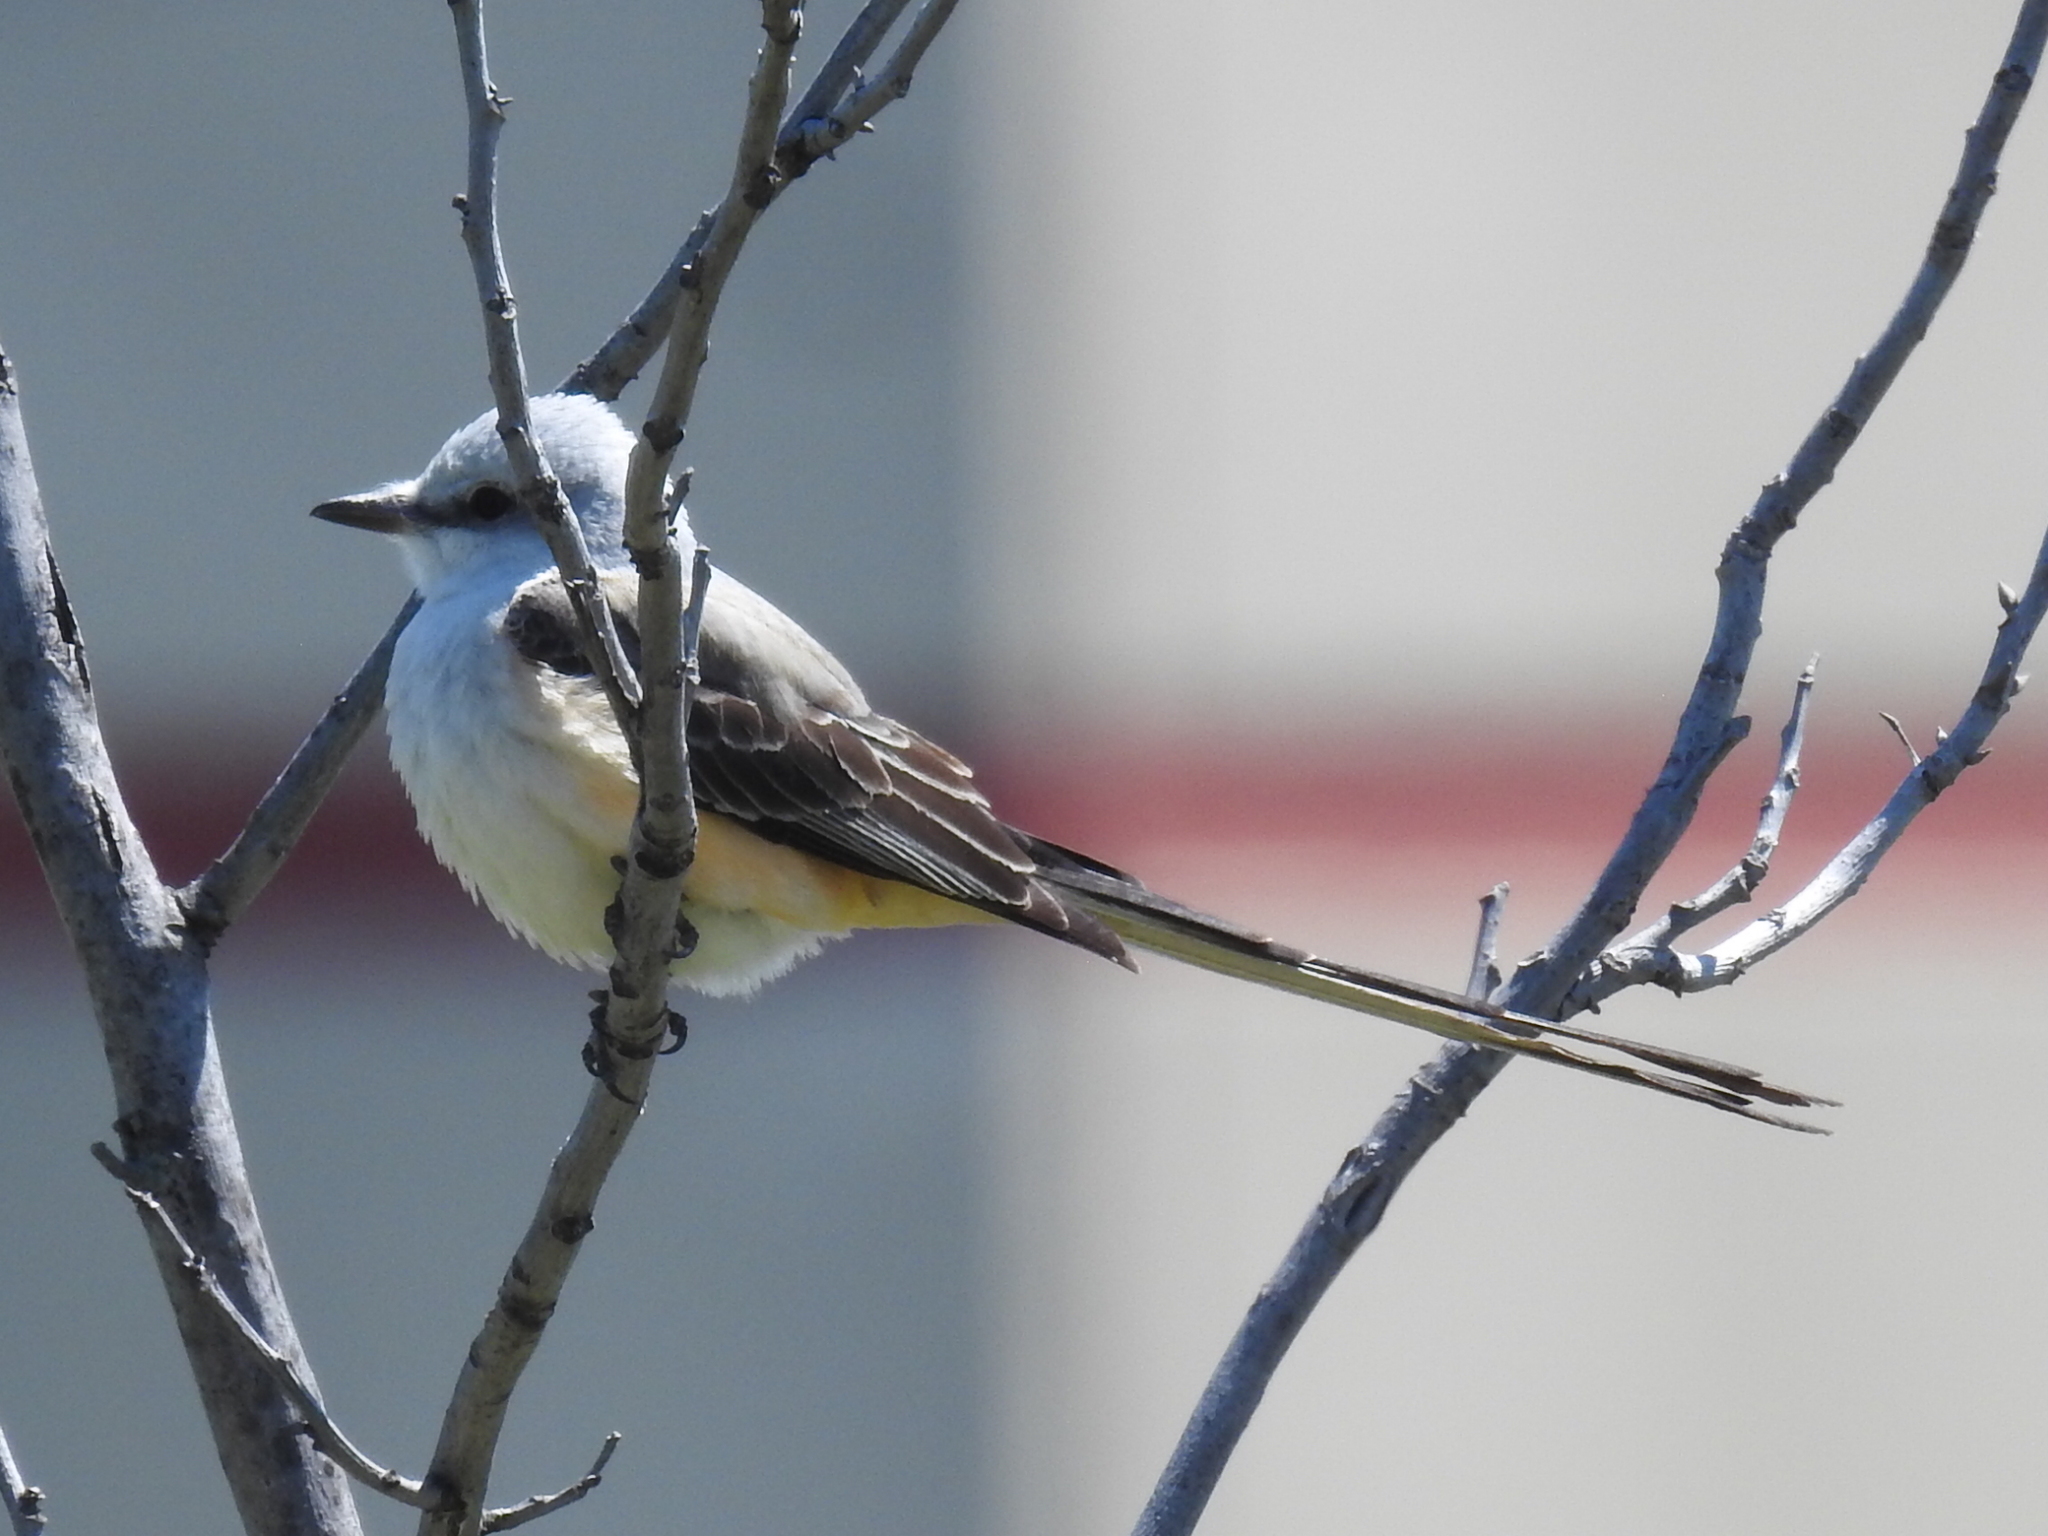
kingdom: Animalia
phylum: Chordata
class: Aves
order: Passeriformes
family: Tyrannidae
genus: Tyrannus
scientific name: Tyrannus forficatus
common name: Scissor-tailed flycatcher
